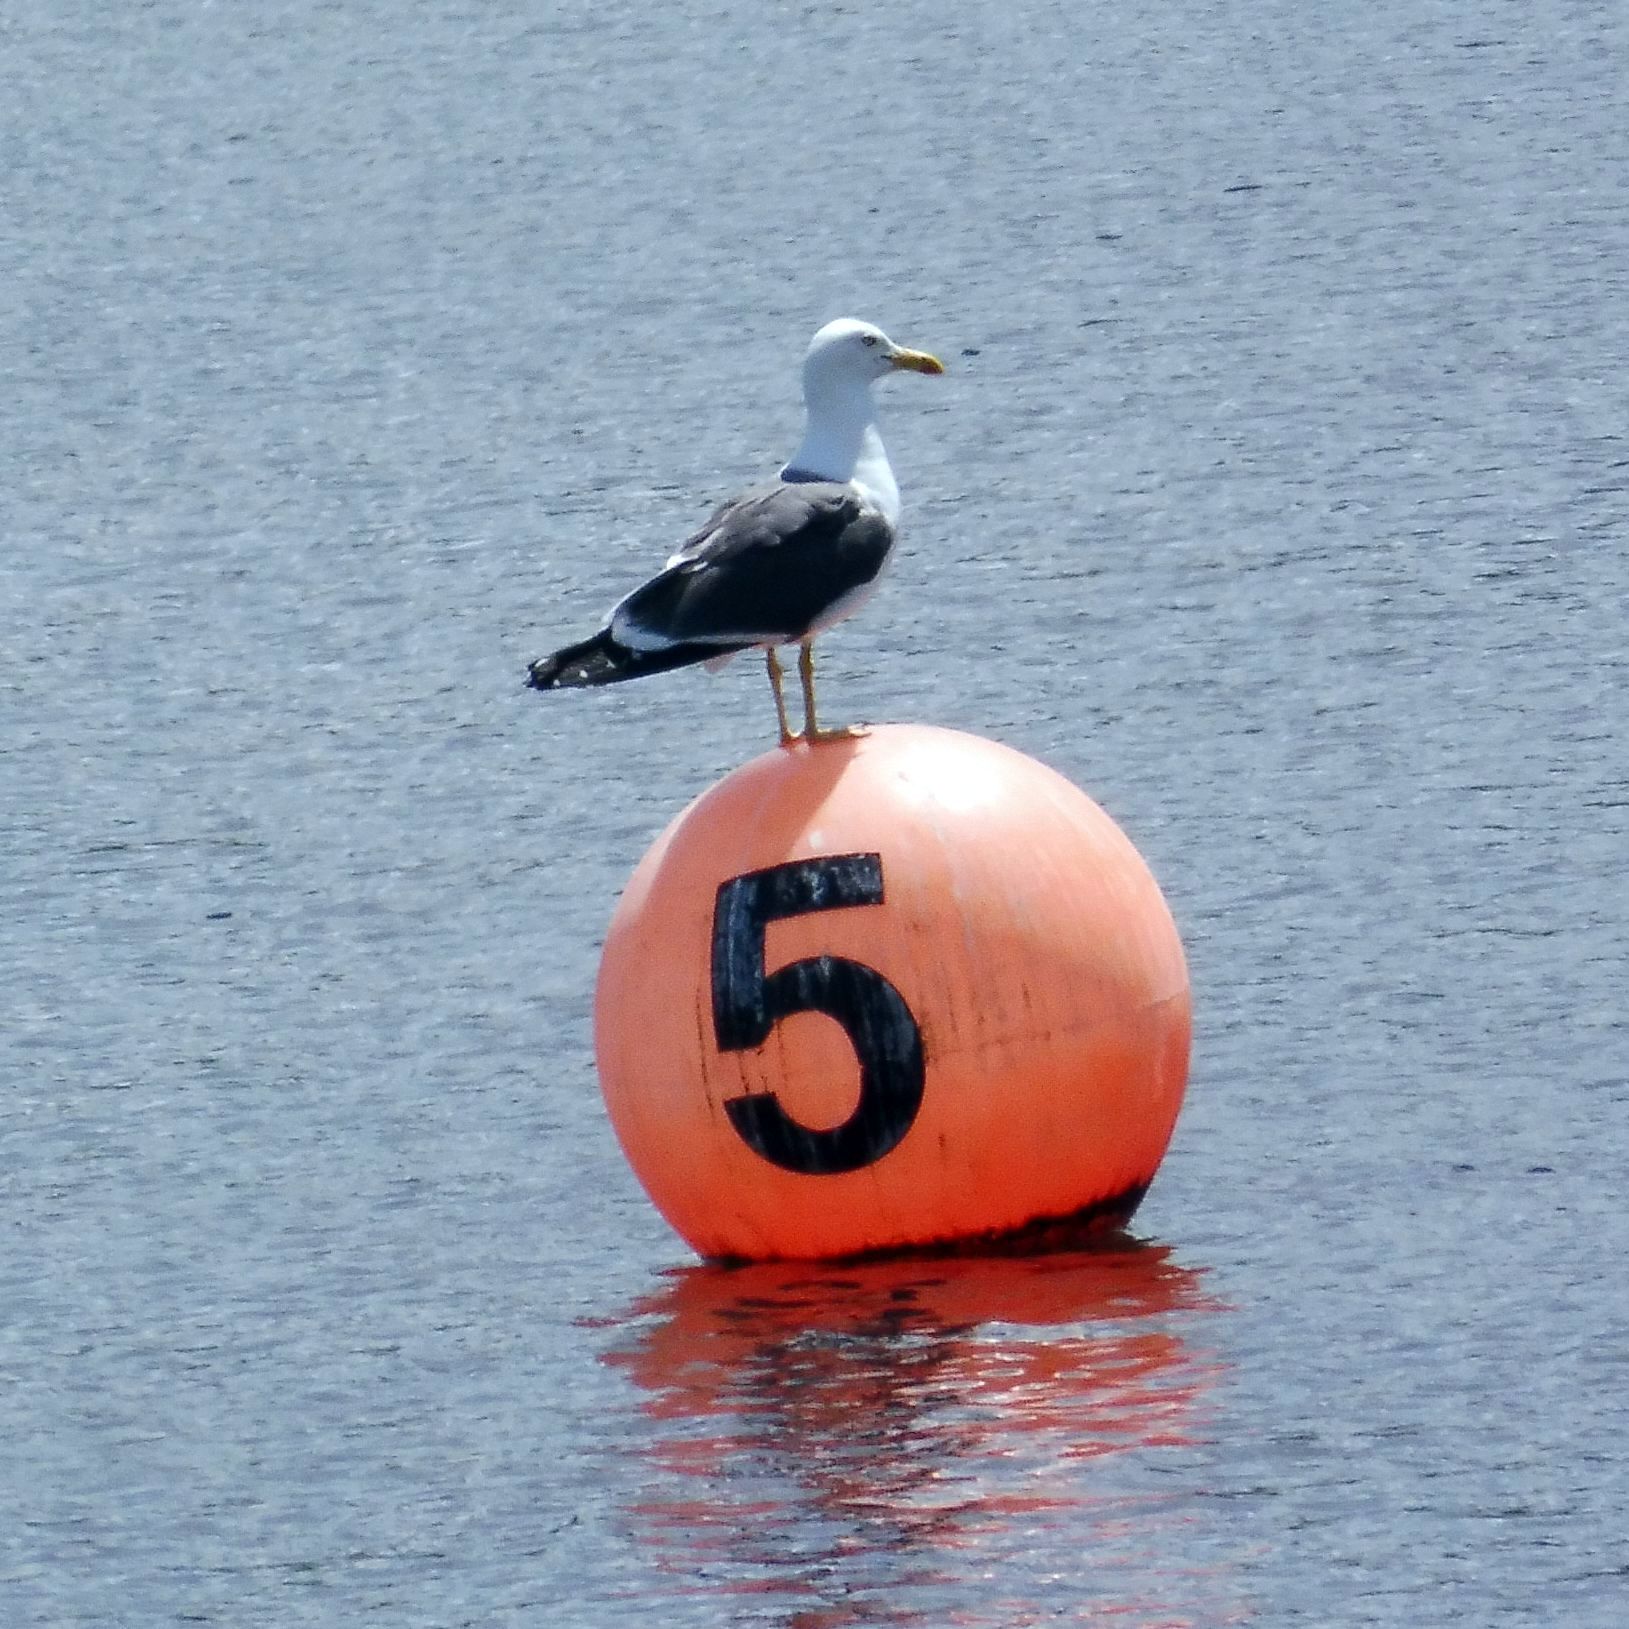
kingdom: Animalia
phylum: Chordata
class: Aves
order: Charadriiformes
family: Laridae
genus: Larus
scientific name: Larus fuscus
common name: Lesser black-backed gull
